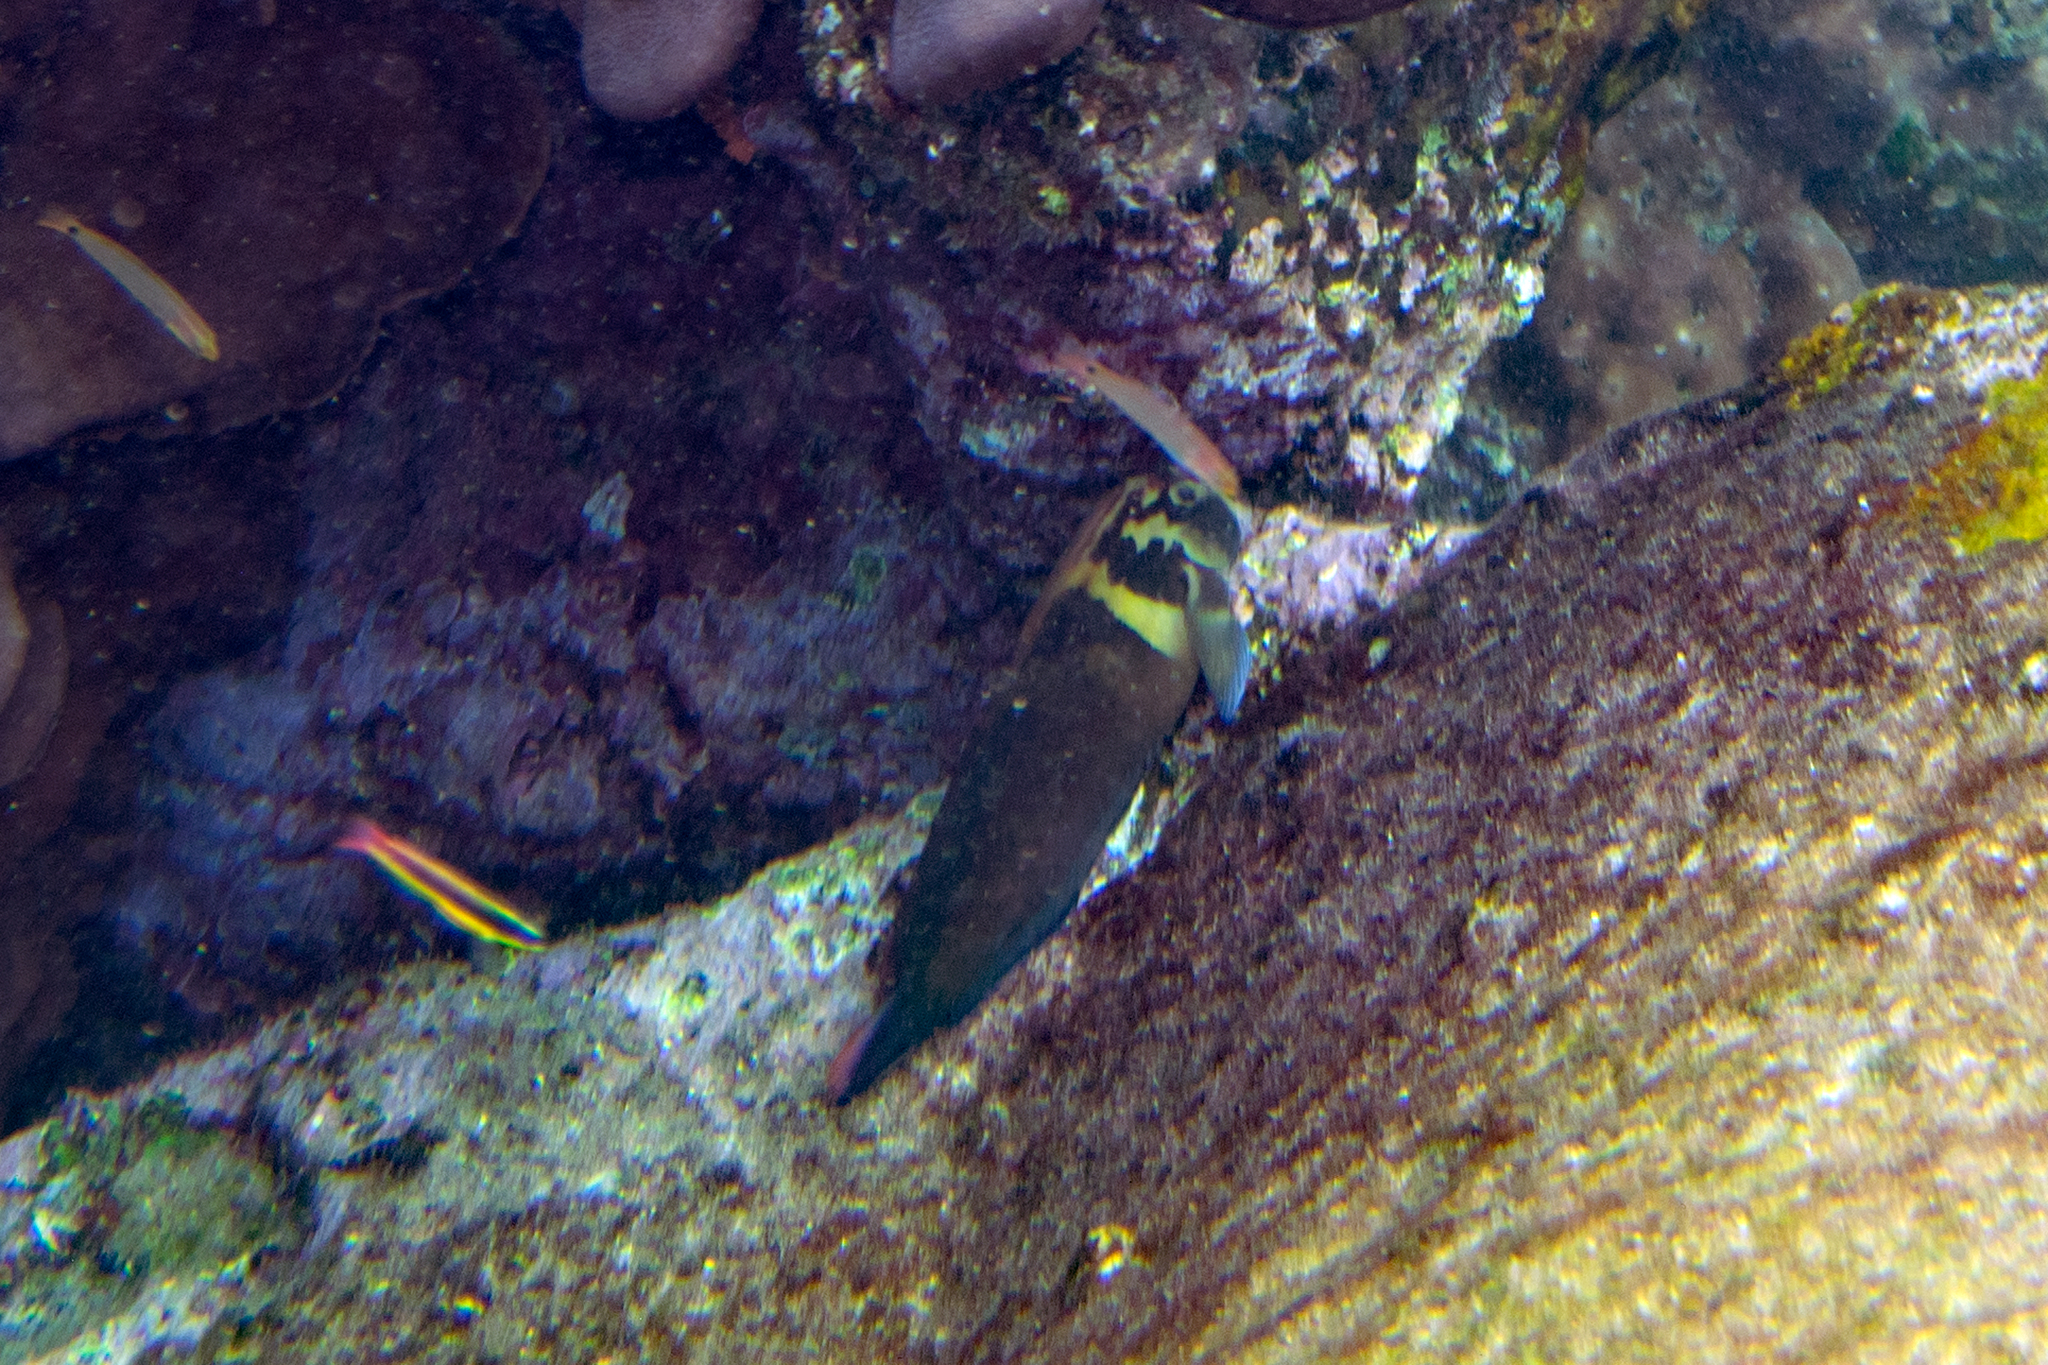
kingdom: Animalia
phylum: Chordata
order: Perciformes
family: Blenniidae
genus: Ophioblennius
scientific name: Ophioblennius steindachneri
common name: Panamic fanged blenny
